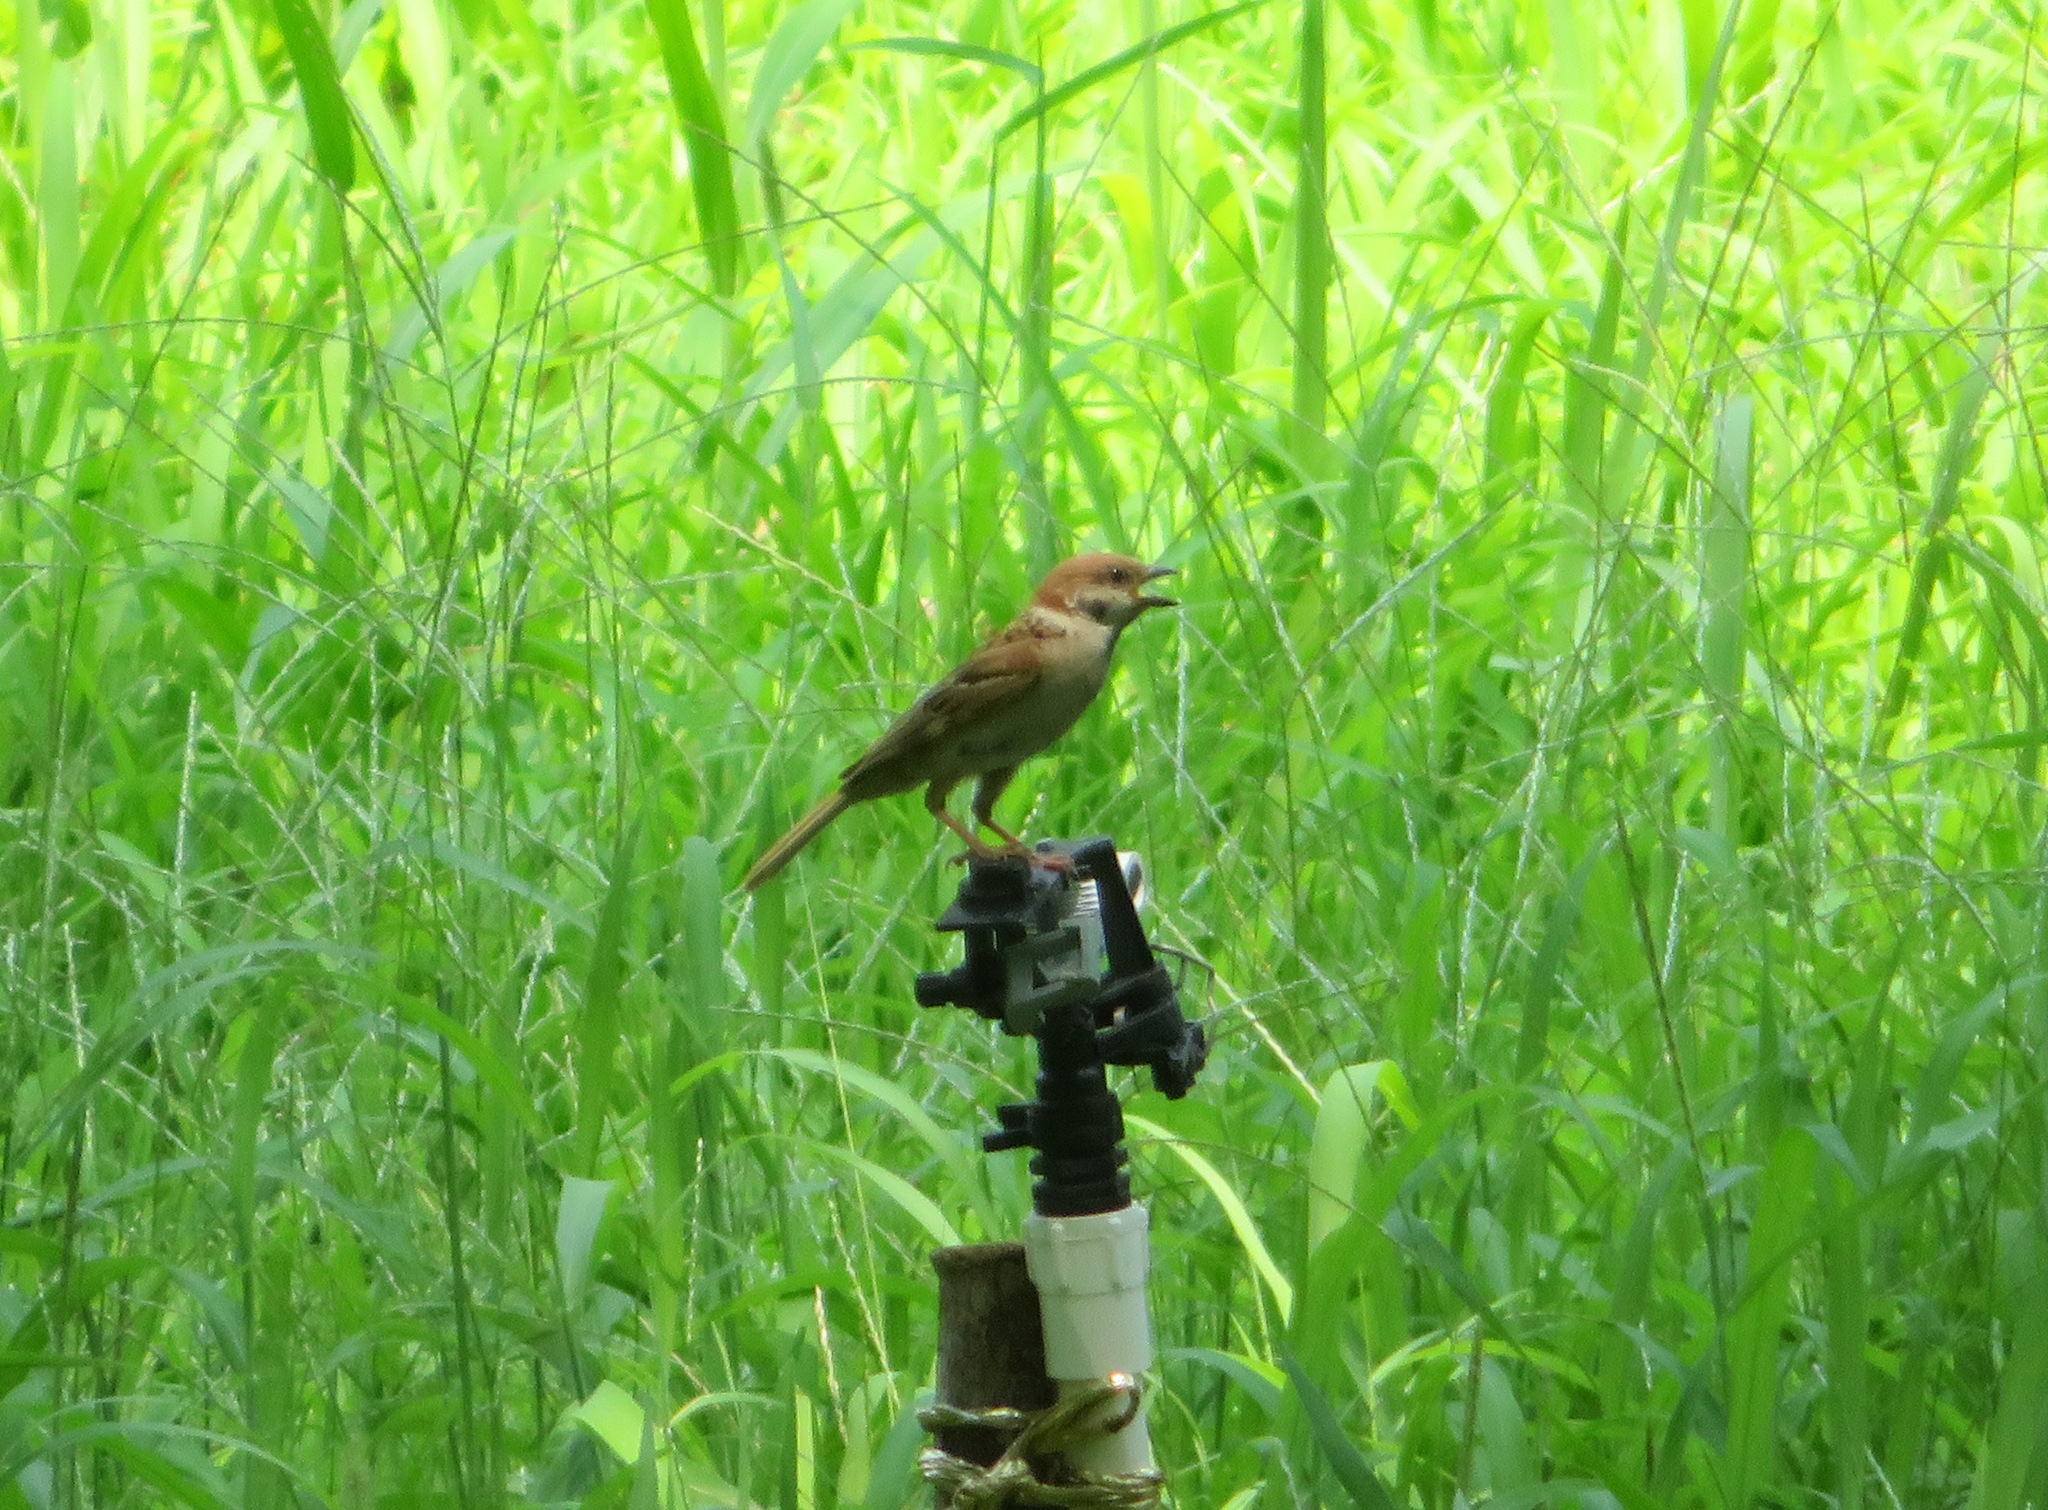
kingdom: Animalia
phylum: Chordata
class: Aves
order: Passeriformes
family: Passeridae
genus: Passer
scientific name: Passer montanus
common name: Eurasian tree sparrow
